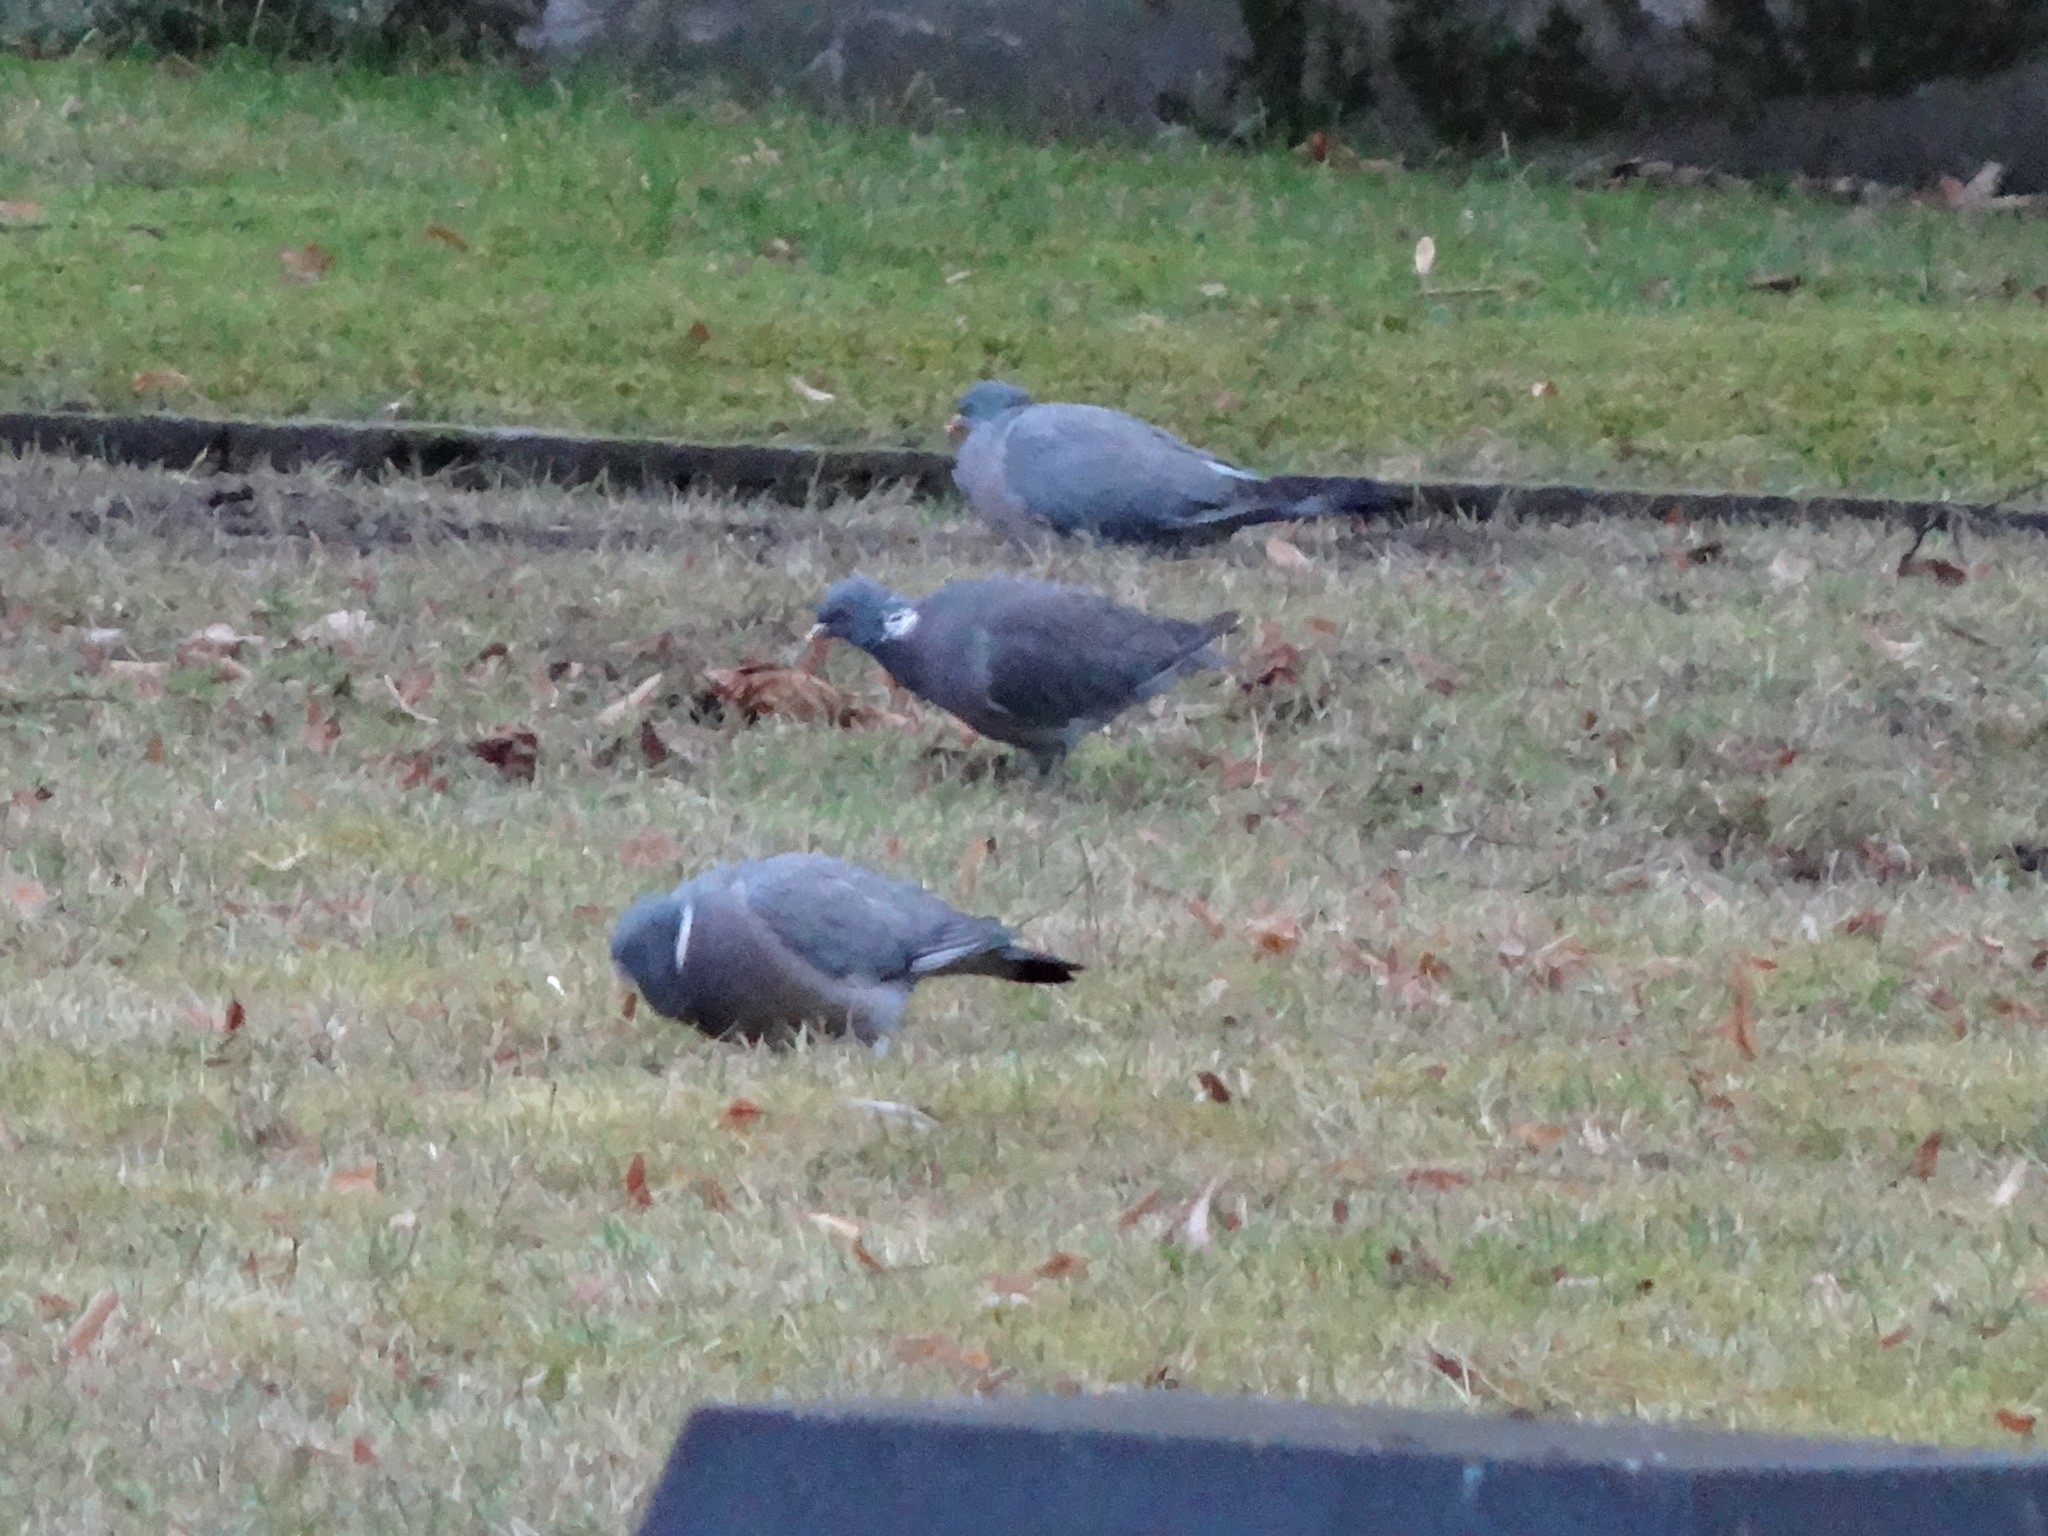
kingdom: Animalia
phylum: Chordata
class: Aves
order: Columbiformes
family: Columbidae
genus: Columba
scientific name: Columba palumbus
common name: Common wood pigeon
